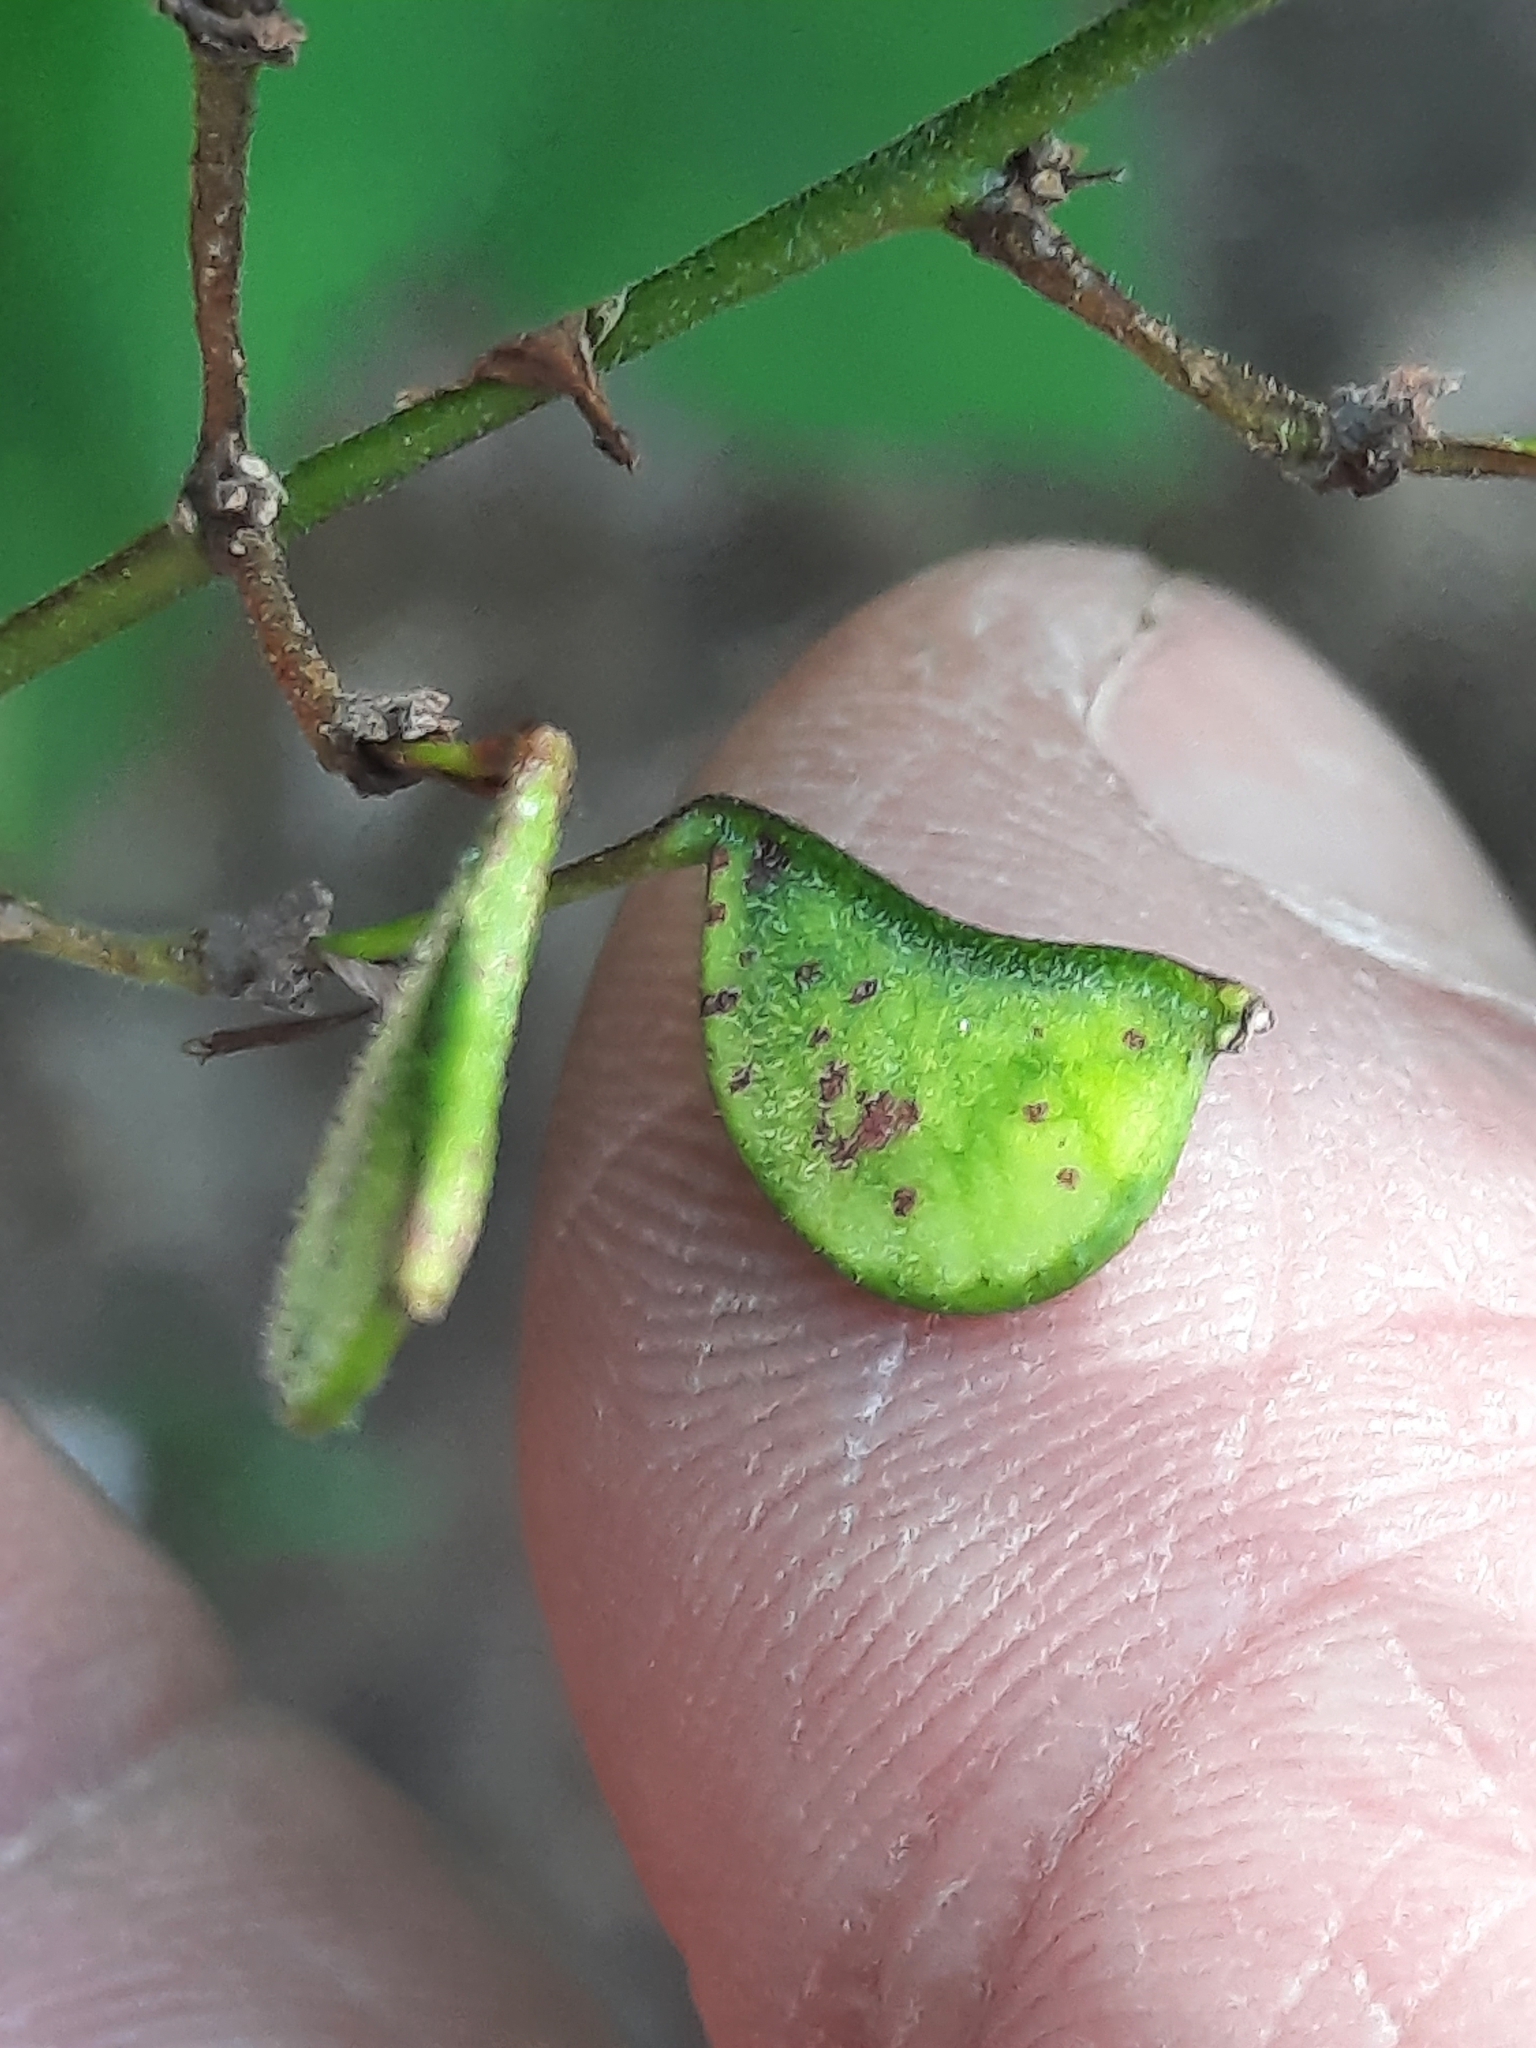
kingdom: Plantae
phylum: Tracheophyta
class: Magnoliopsida
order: Fabales
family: Fabaceae
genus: Hylodesmum
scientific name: Hylodesmum glutinosum
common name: Clustered-leaved tick-trefoil
